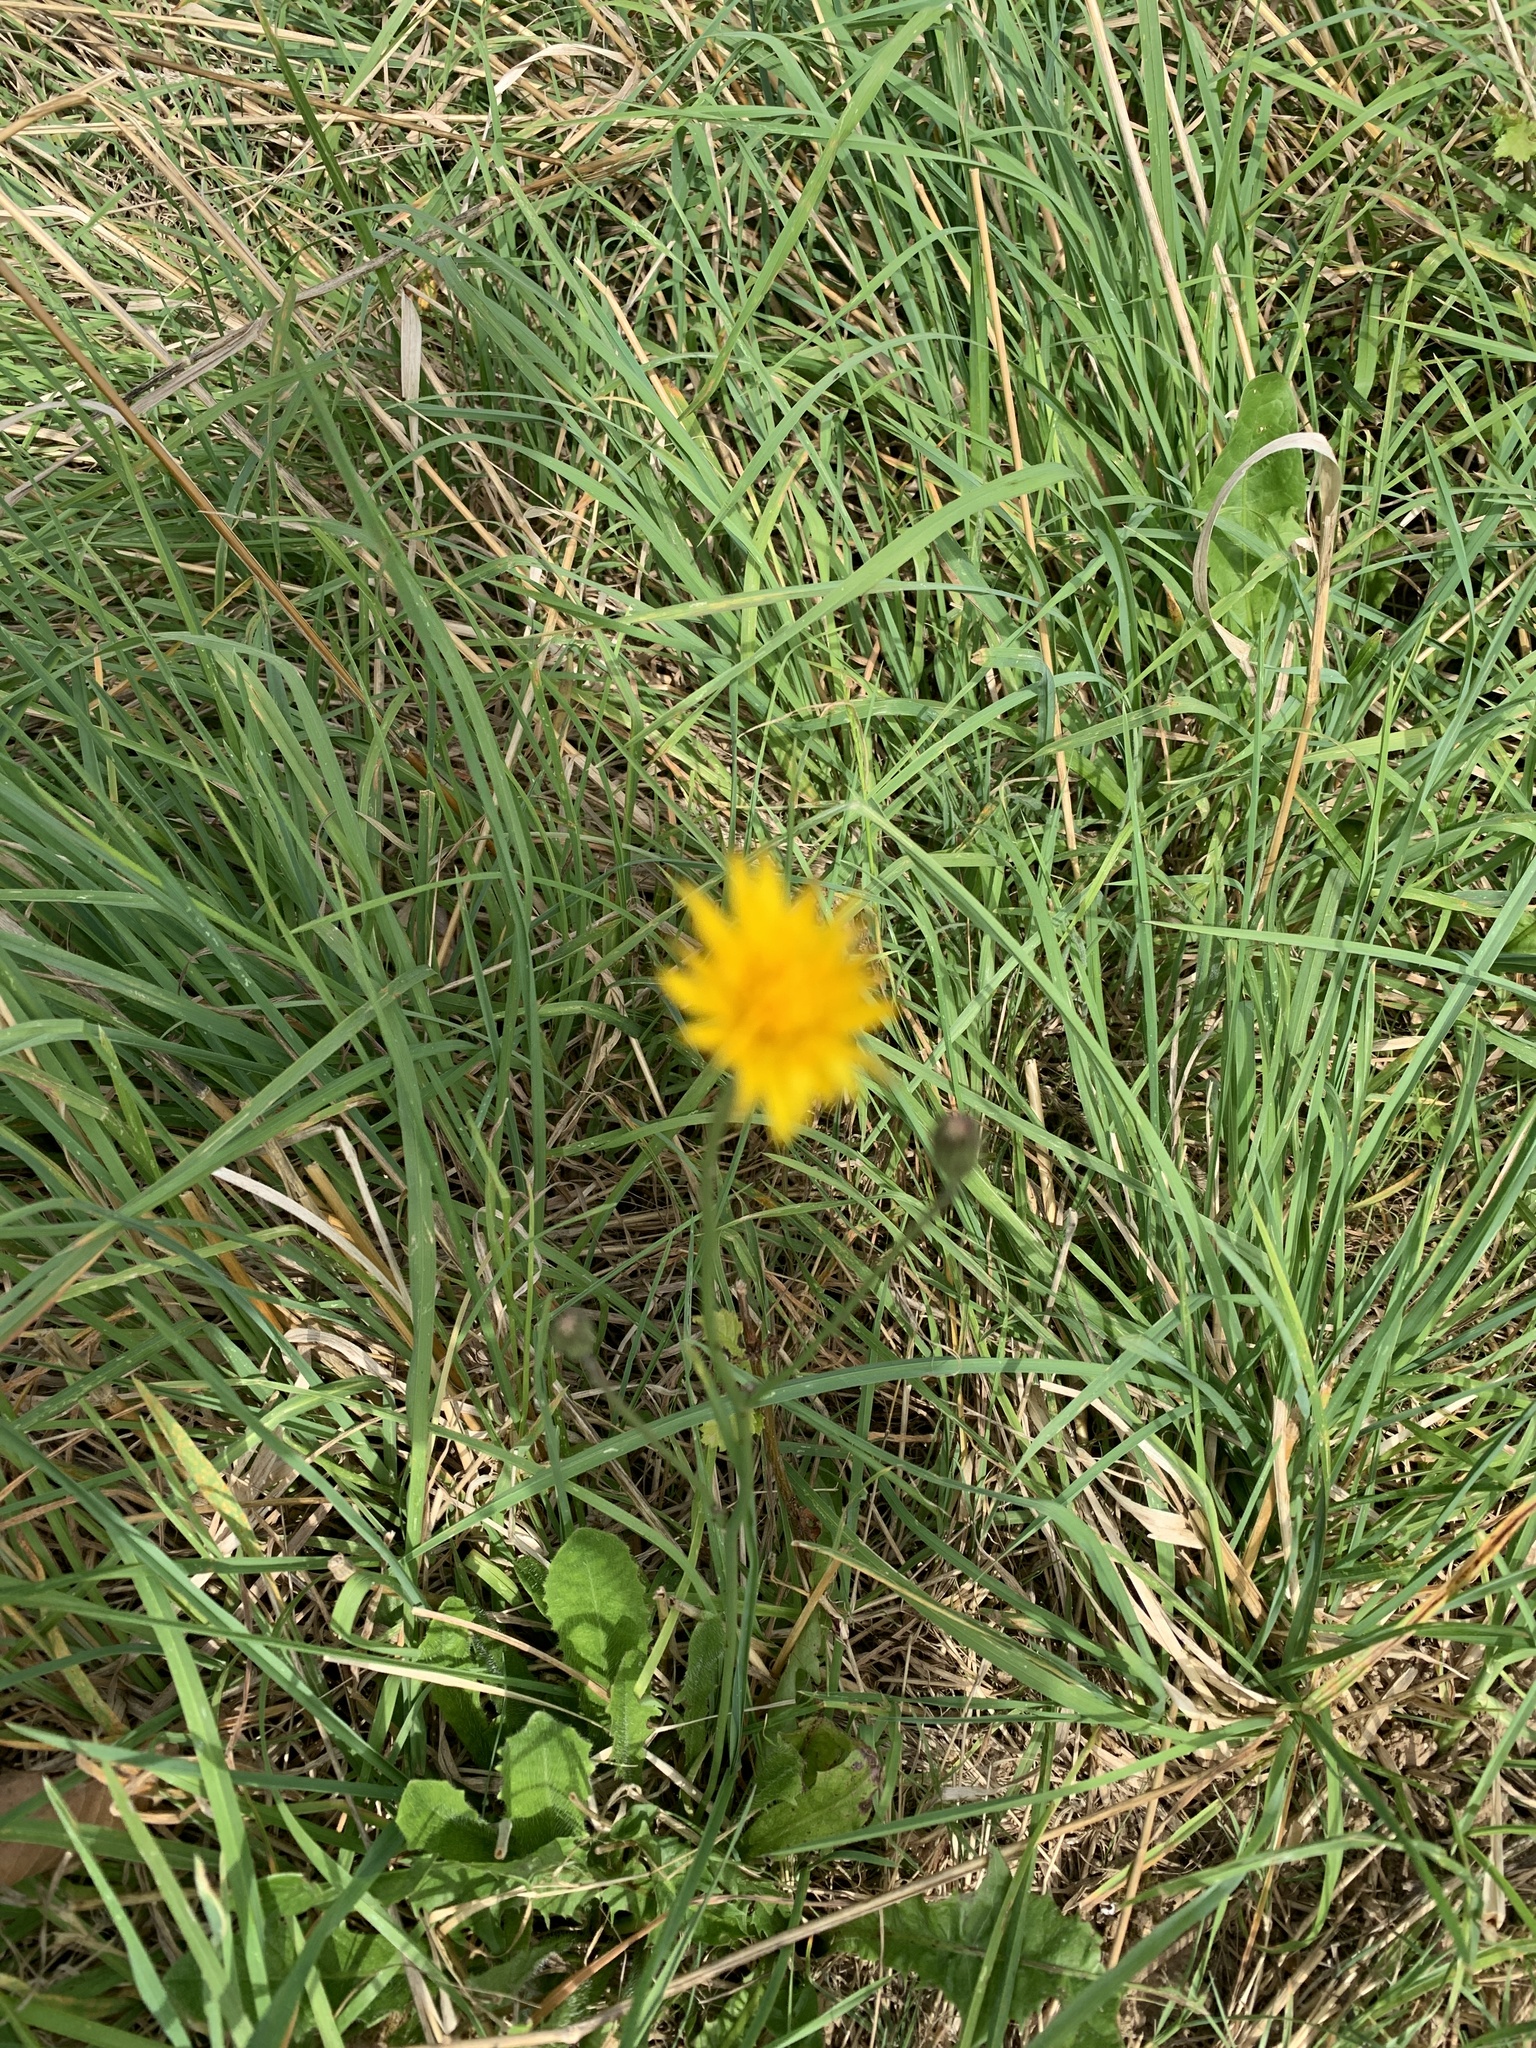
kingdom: Plantae
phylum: Tracheophyta
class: Magnoliopsida
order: Asterales
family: Asteraceae
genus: Hypochaeris
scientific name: Hypochaeris radicata
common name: Flatweed
